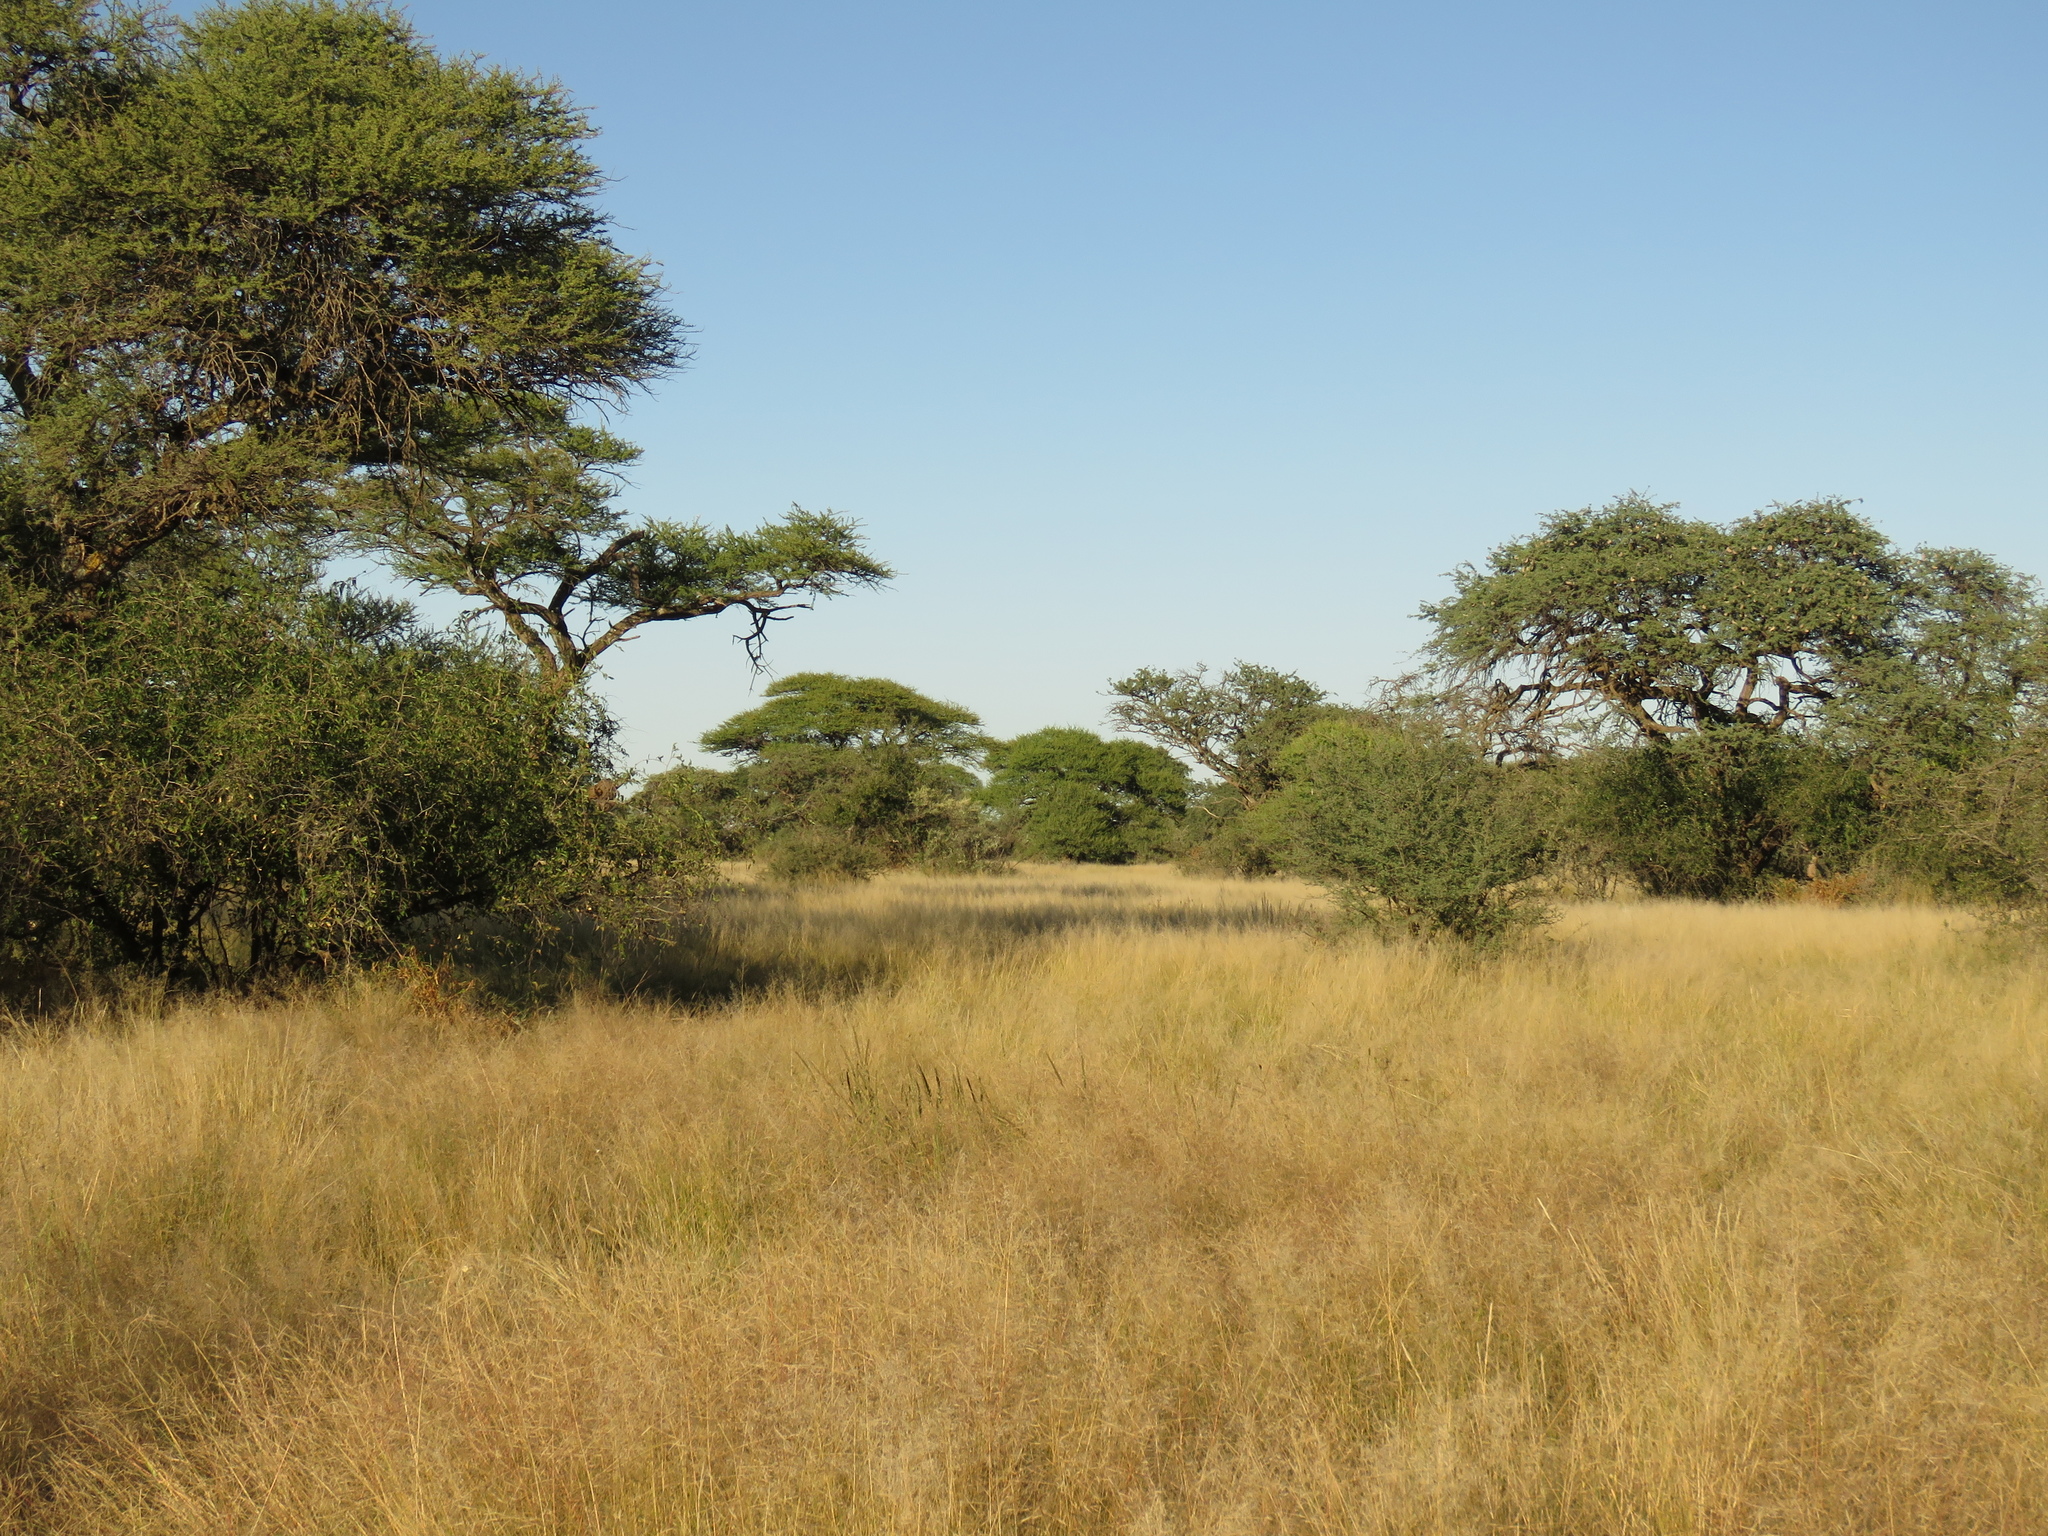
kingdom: Plantae
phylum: Tracheophyta
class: Magnoliopsida
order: Fabales
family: Fabaceae
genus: Vachellia
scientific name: Vachellia erioloba
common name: Camel thorn
